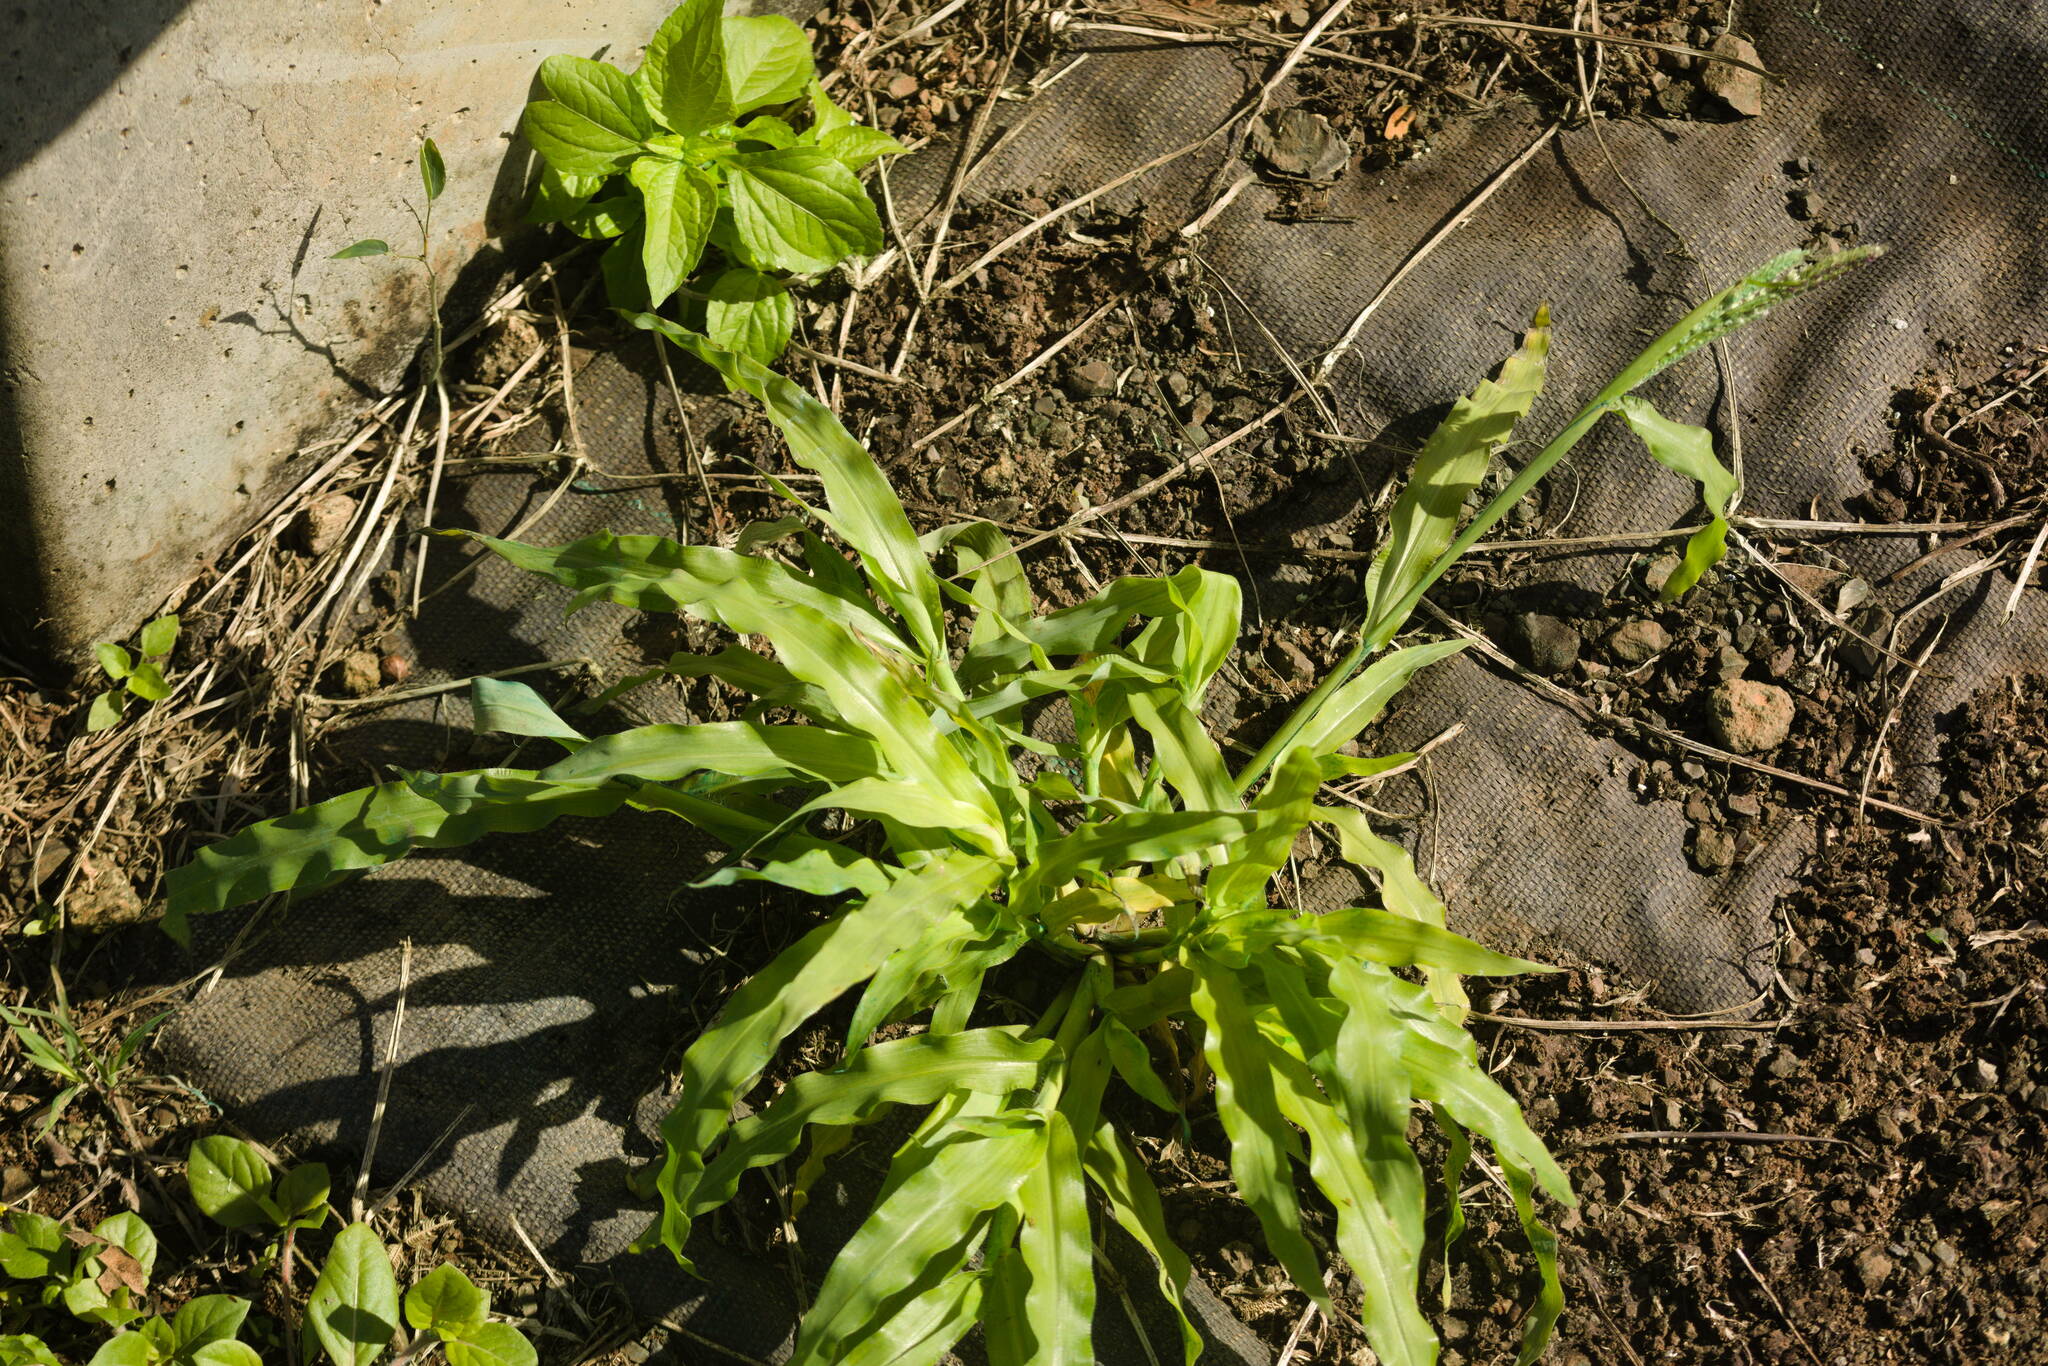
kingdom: Plantae
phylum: Tracheophyta
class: Liliopsida
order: Poales
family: Poaceae
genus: Paspalum
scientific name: Paspalum fimbriatum
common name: Panama crowngrass
